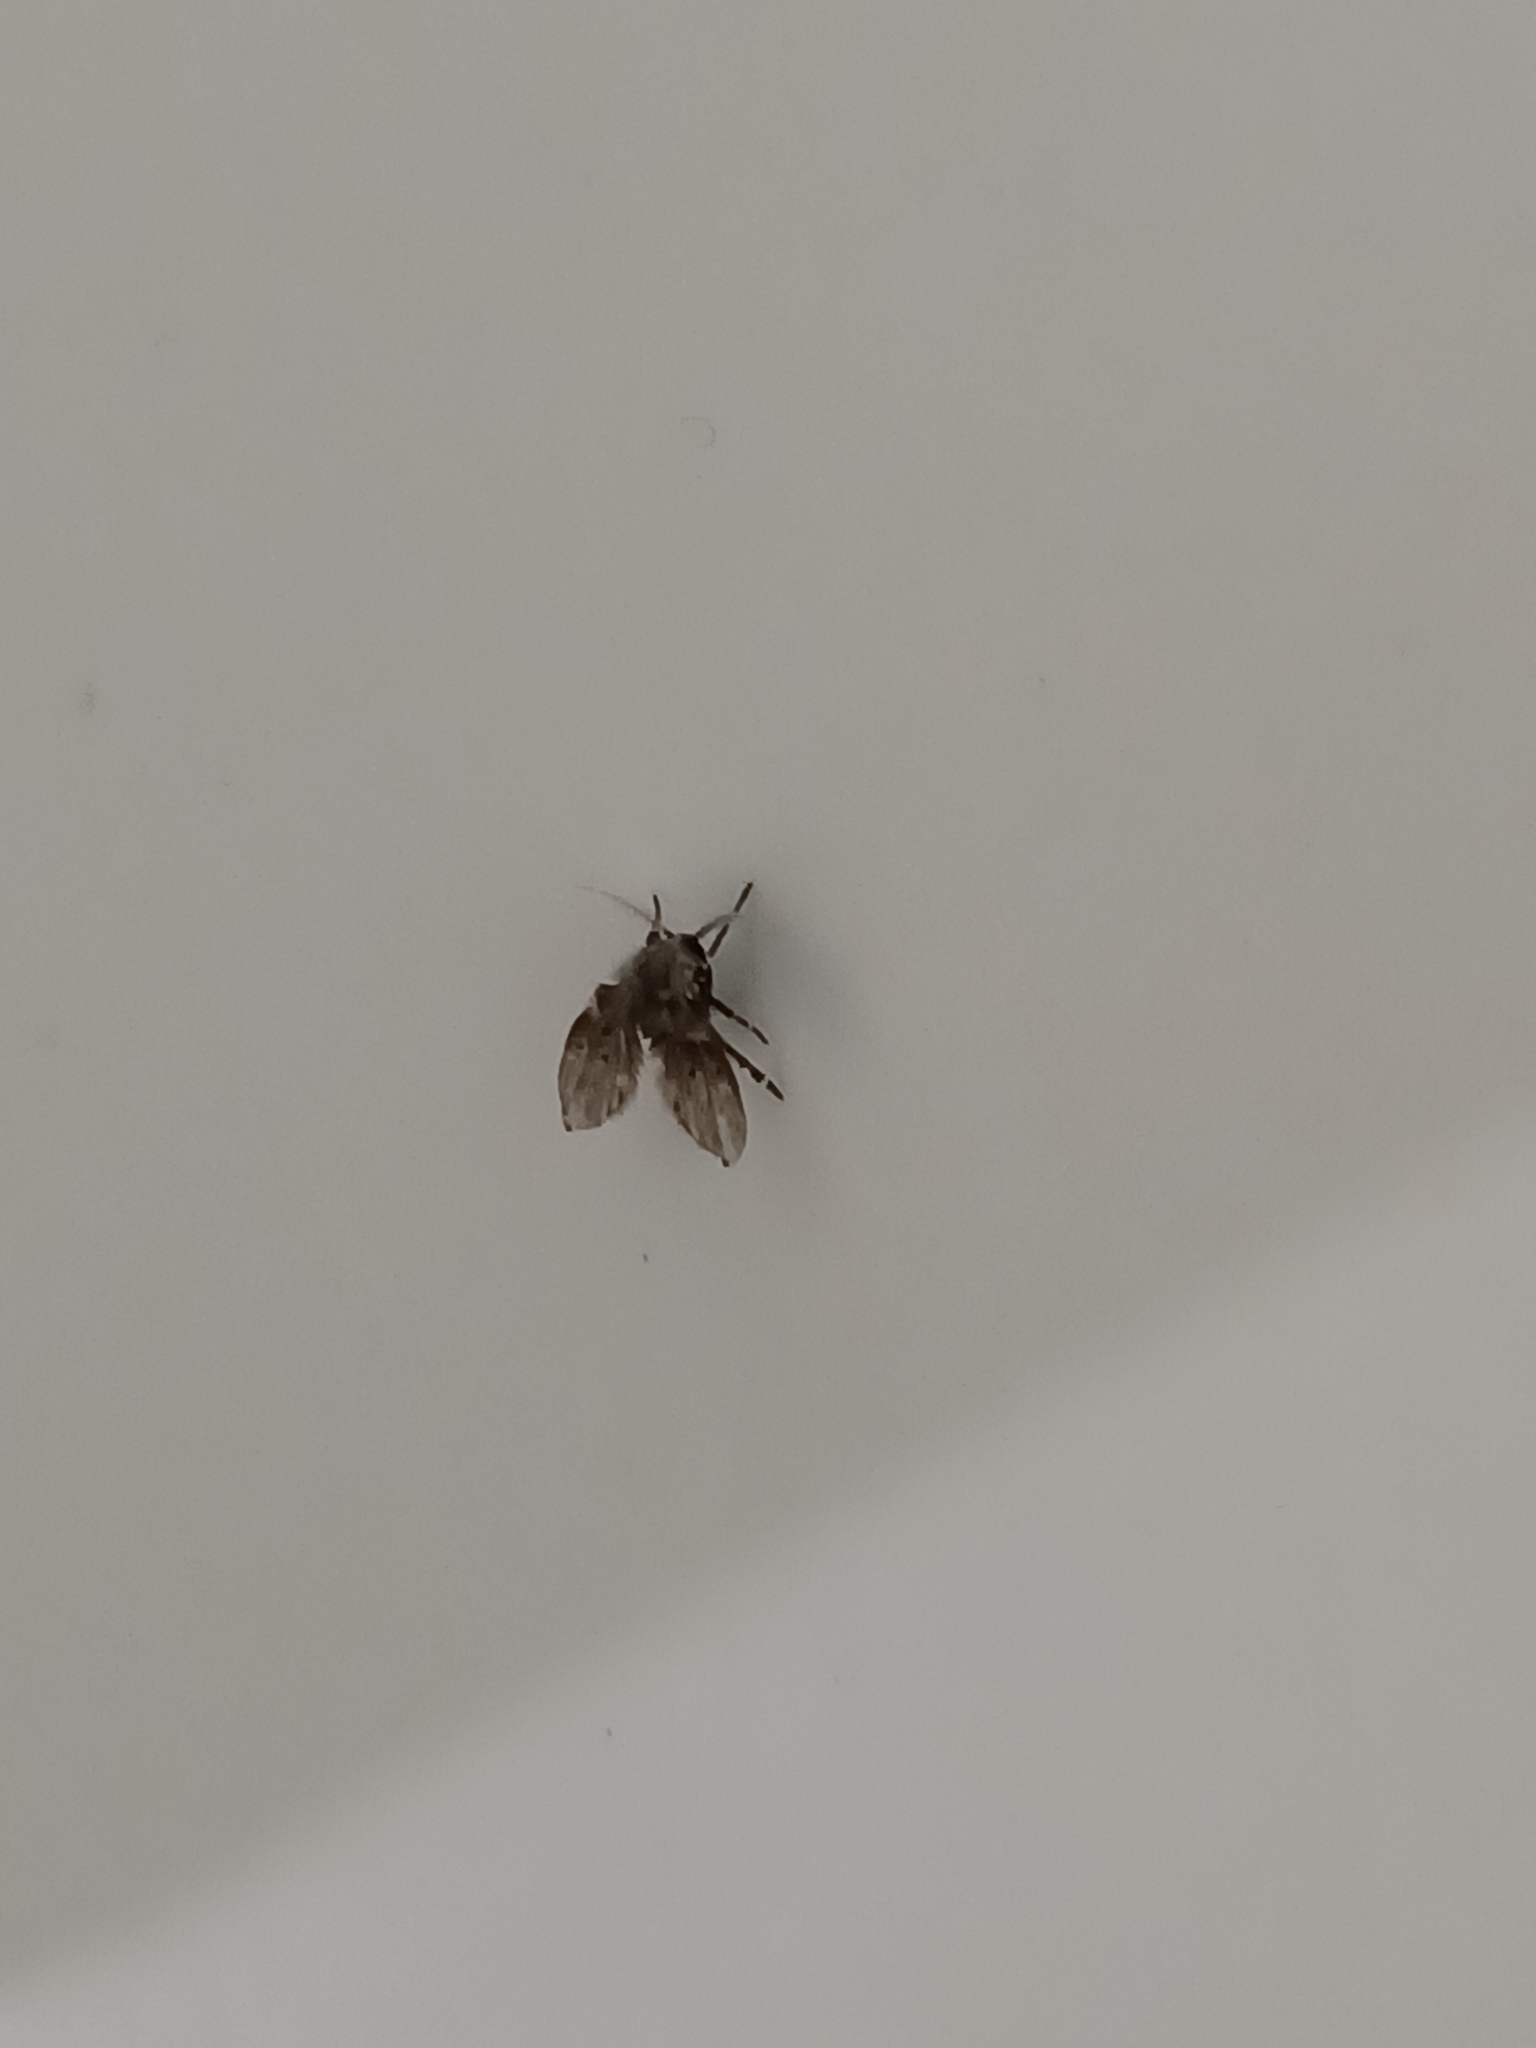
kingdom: Animalia
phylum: Arthropoda
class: Insecta
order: Diptera
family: Psychodidae
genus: Clogmia
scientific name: Clogmia albipunctatus
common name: White-spotted moth fly
